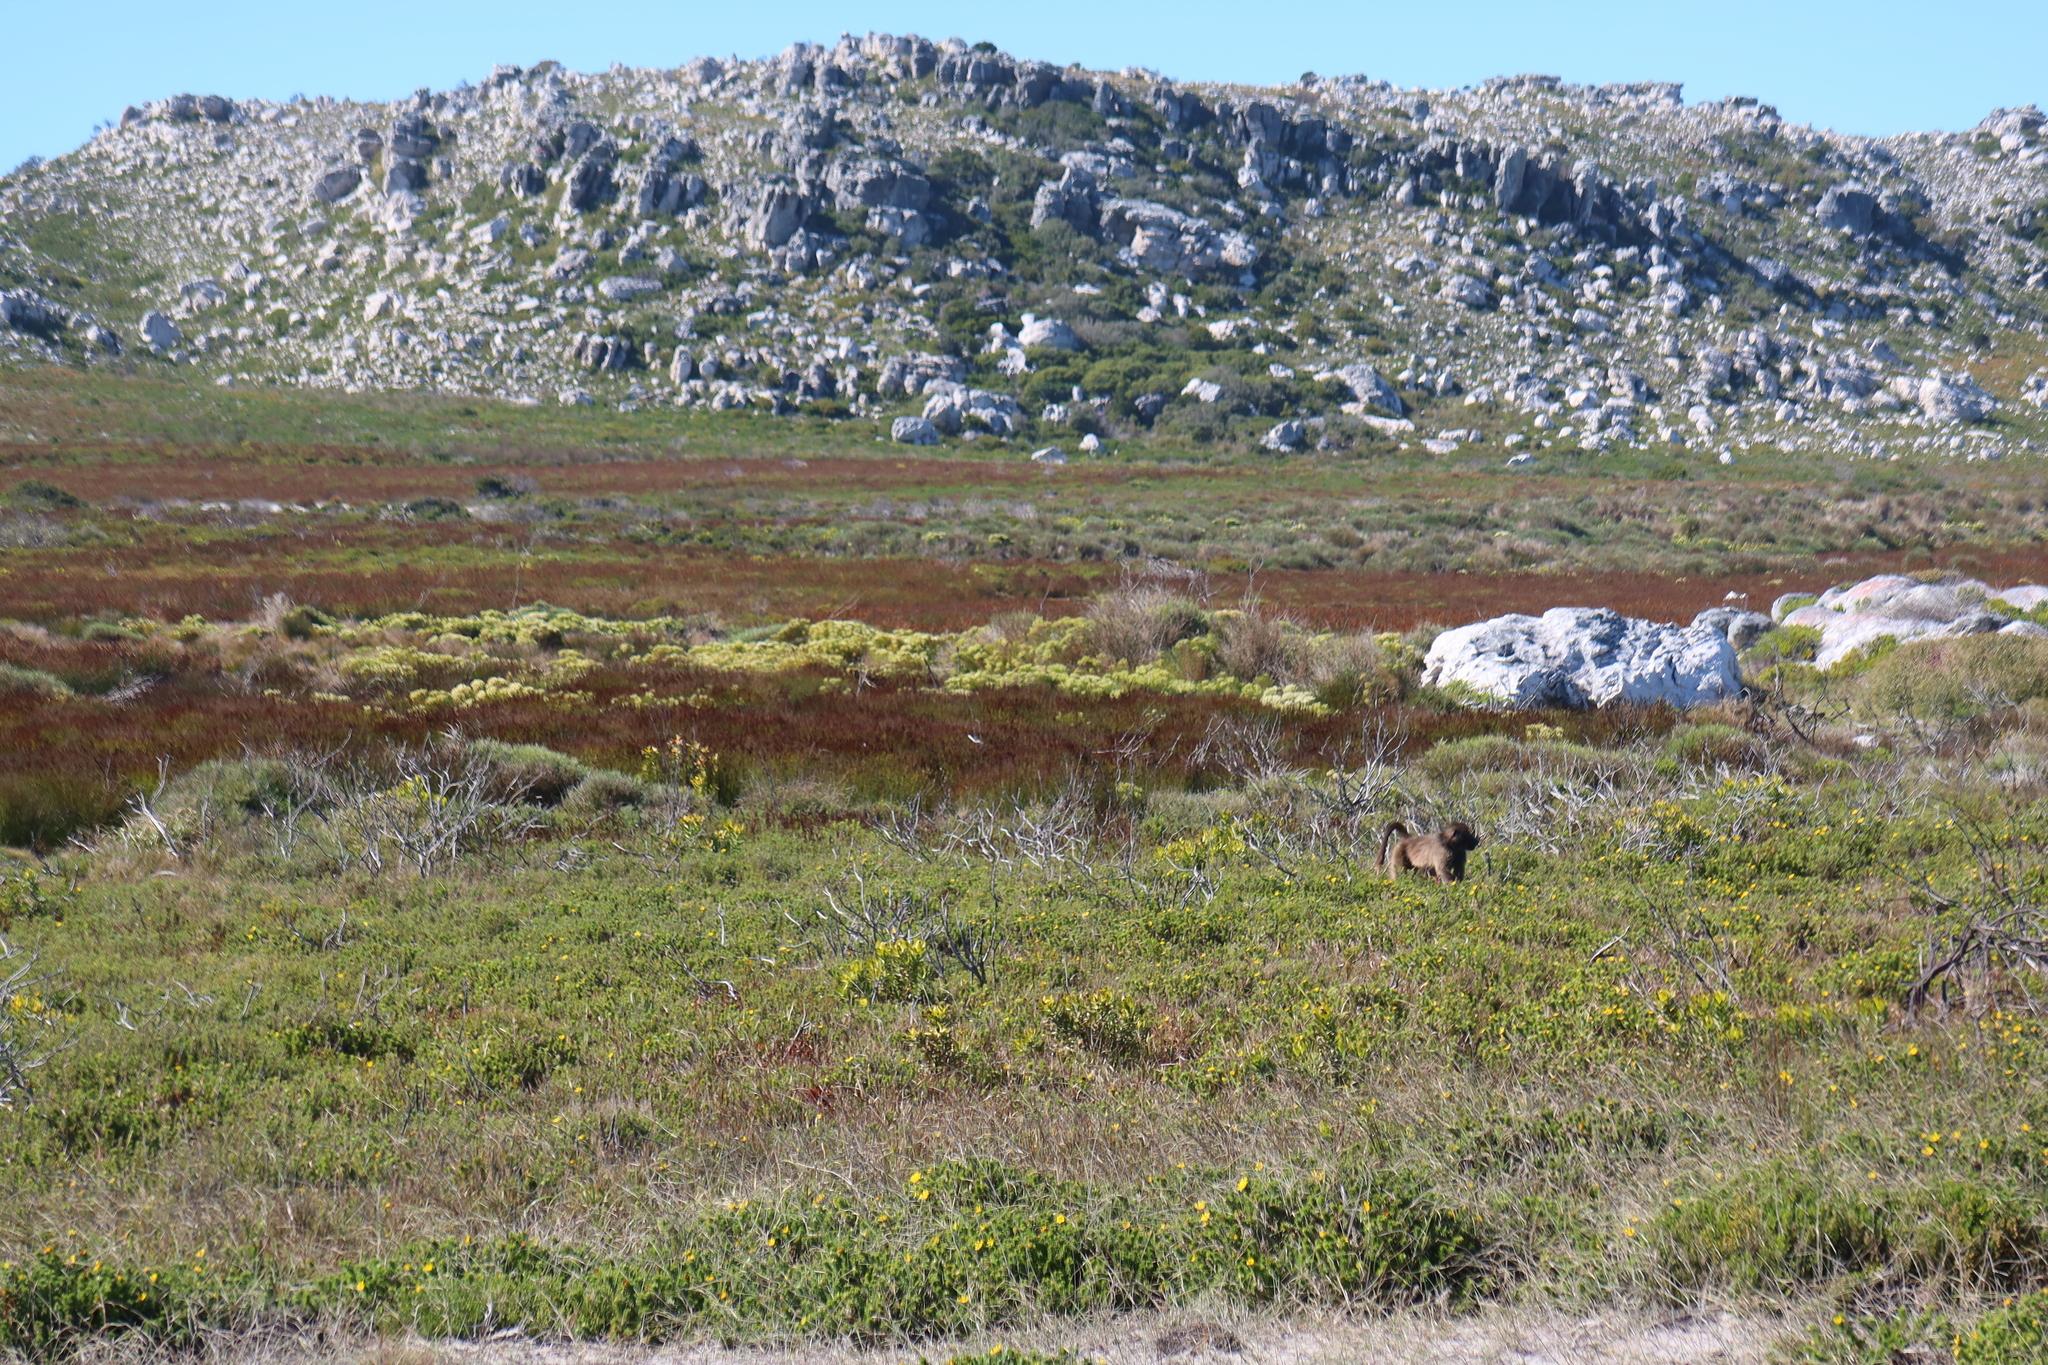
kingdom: Animalia
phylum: Chordata
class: Mammalia
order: Primates
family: Cercopithecidae
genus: Papio
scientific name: Papio ursinus
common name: Chacma baboon
